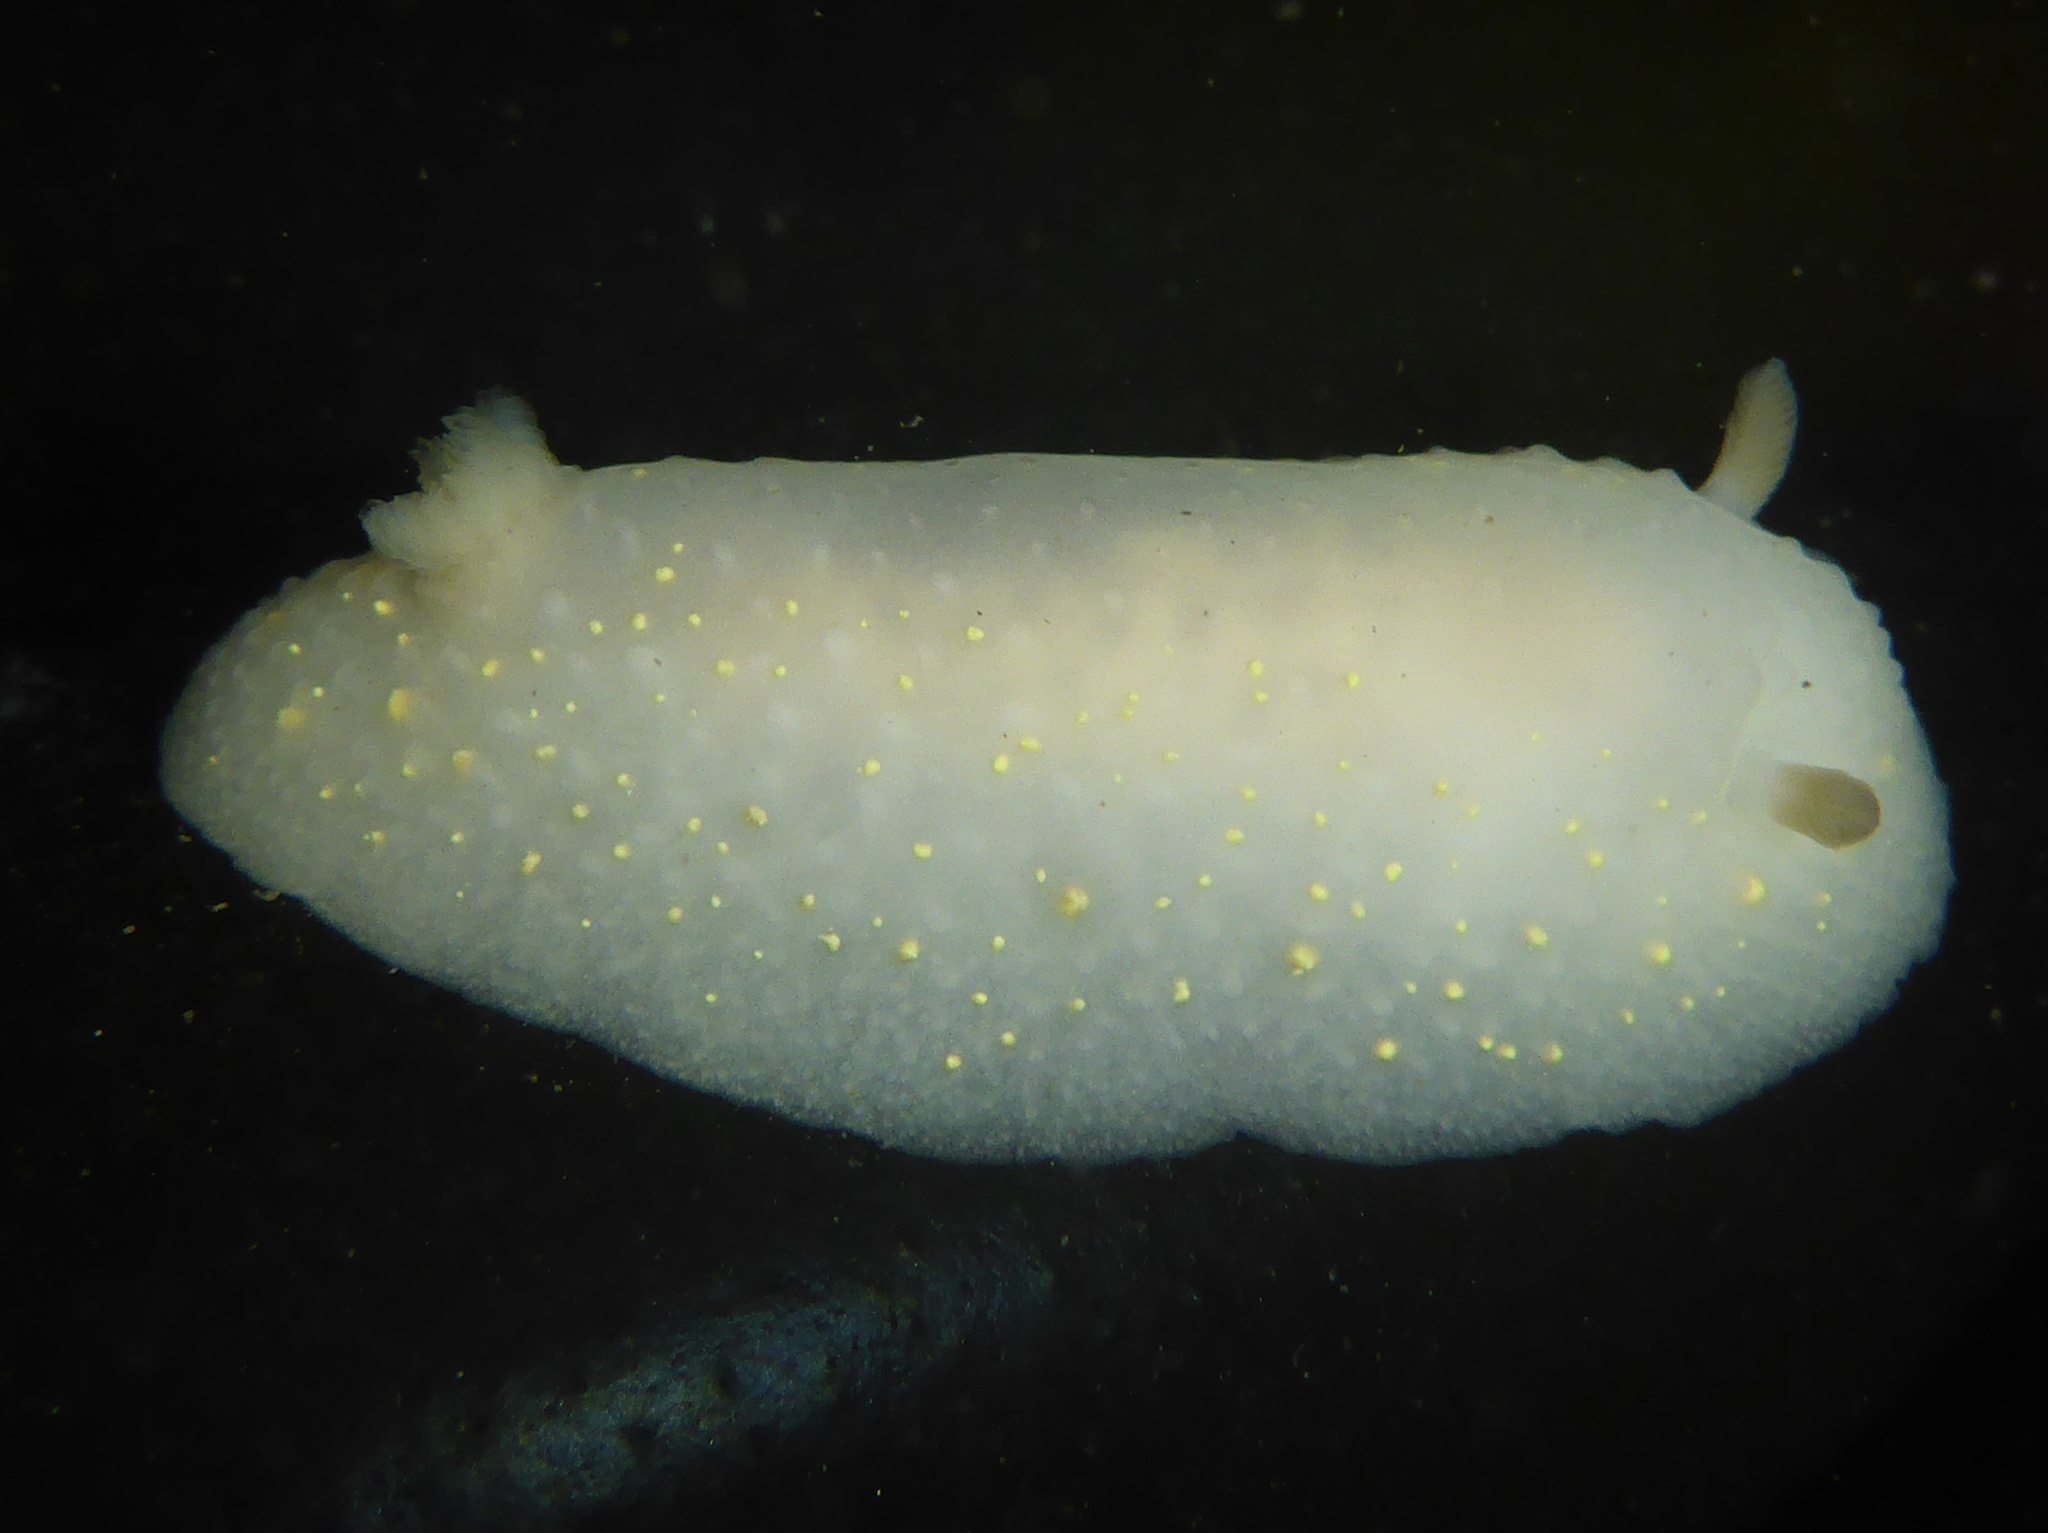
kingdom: Animalia
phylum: Mollusca
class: Gastropoda
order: Nudibranchia
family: Cadlinidae
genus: Cadlina
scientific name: Cadlina modesta
